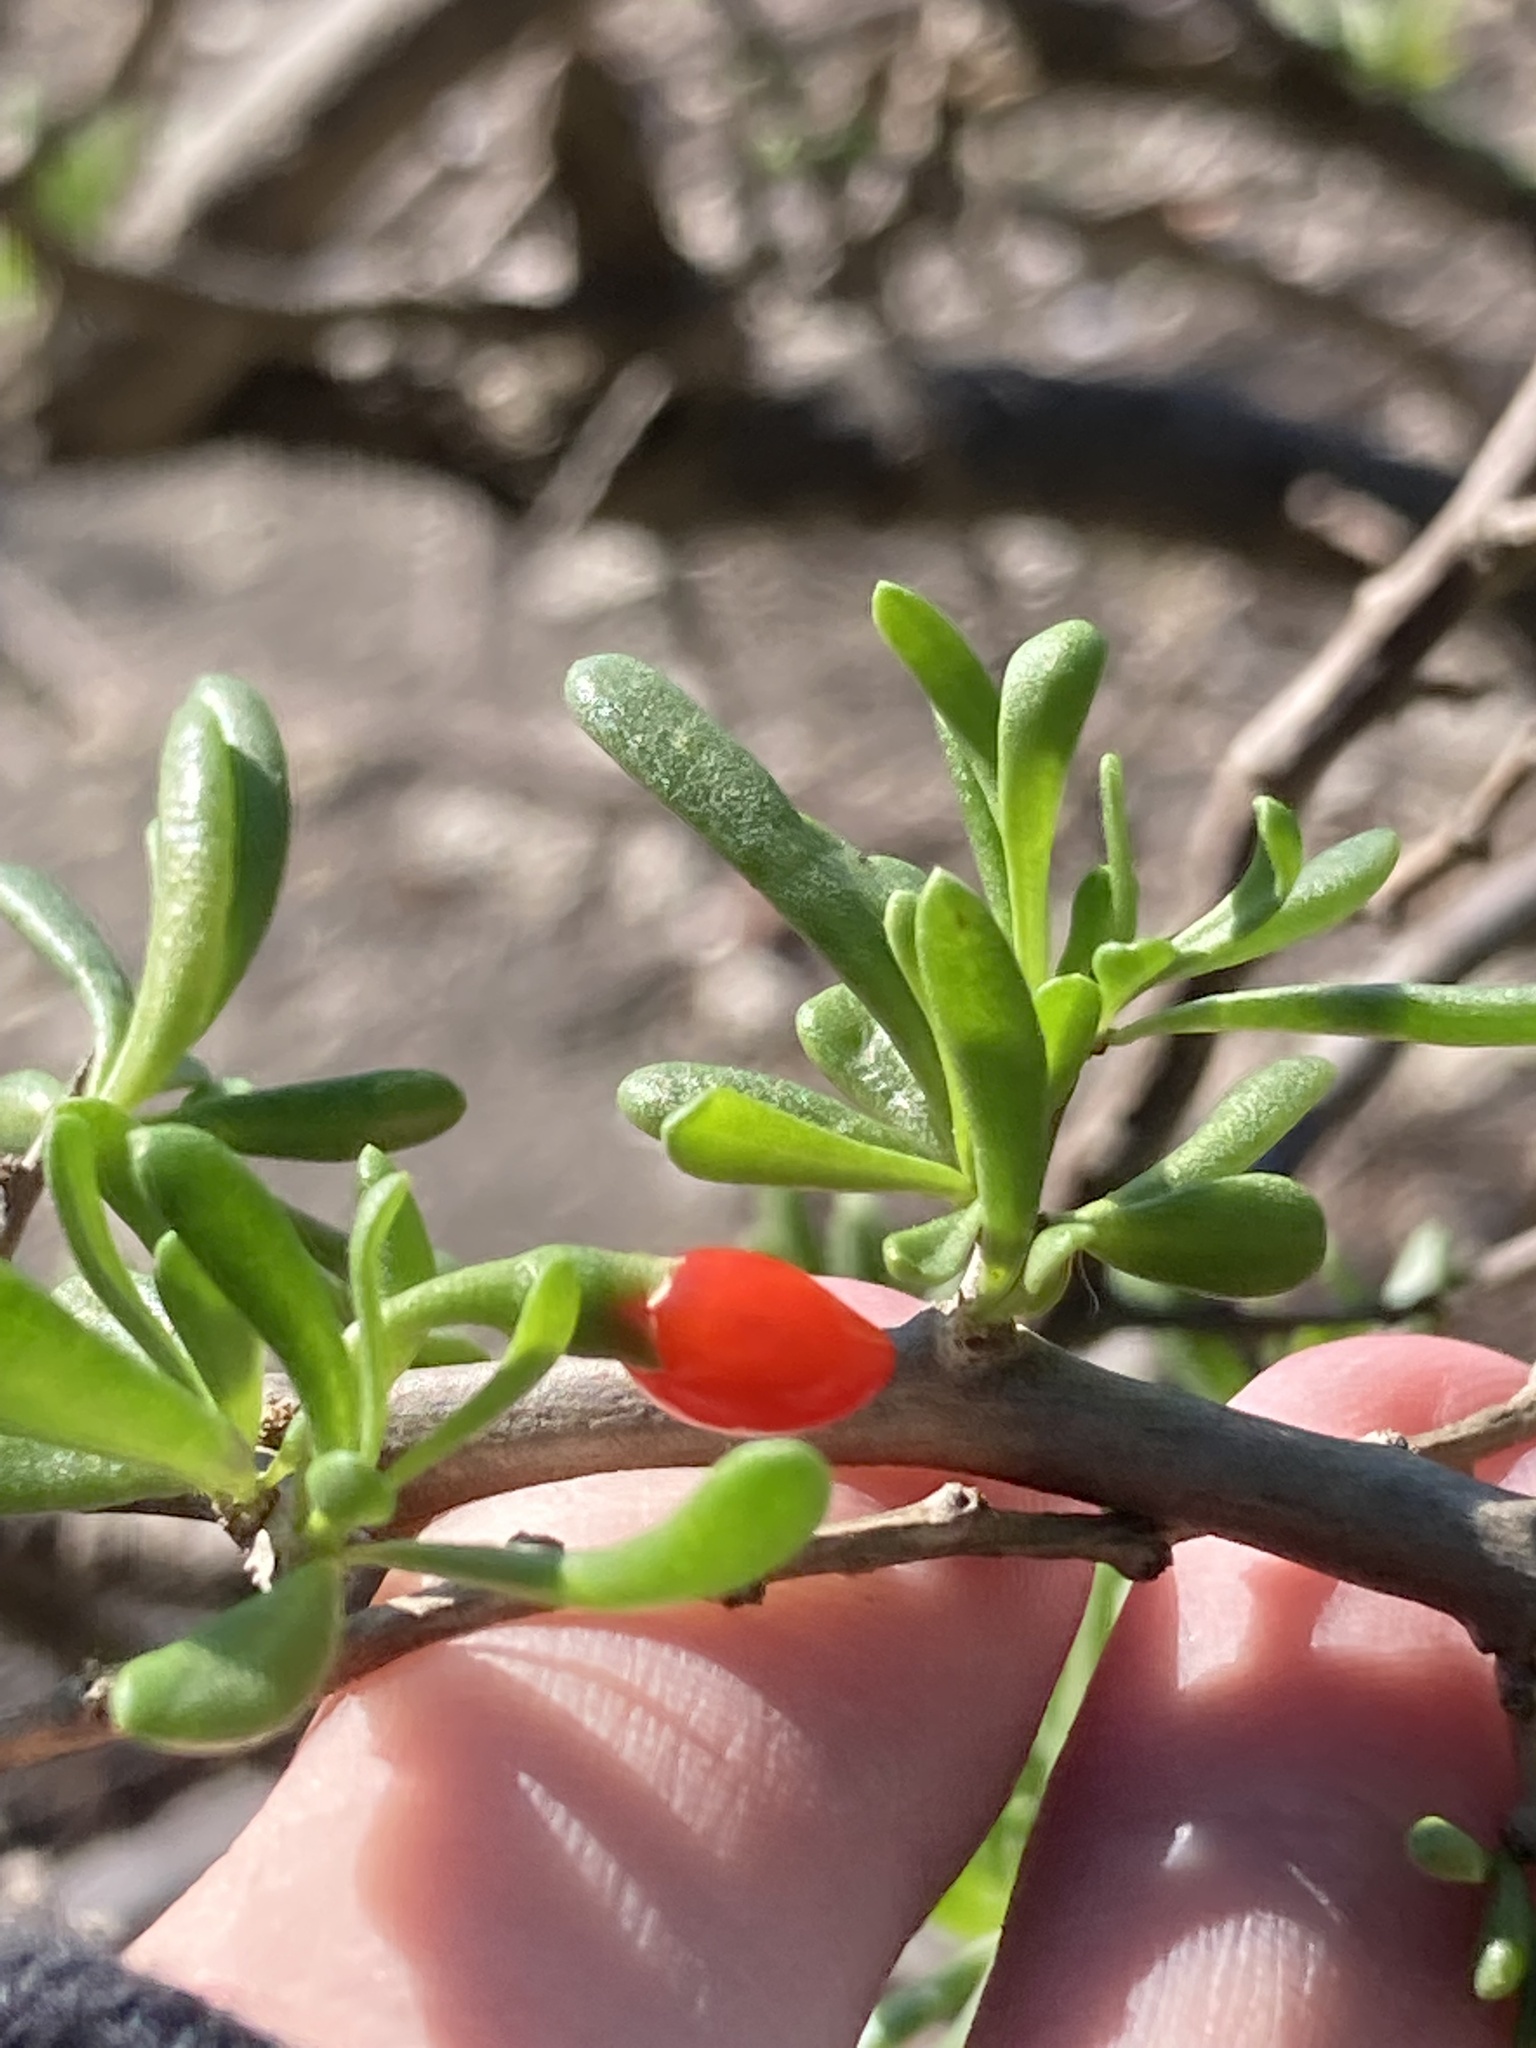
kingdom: Plantae
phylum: Tracheophyta
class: Magnoliopsida
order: Solanales
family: Solanaceae
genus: Lycium
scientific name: Lycium carolinianum
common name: Christmasberry
